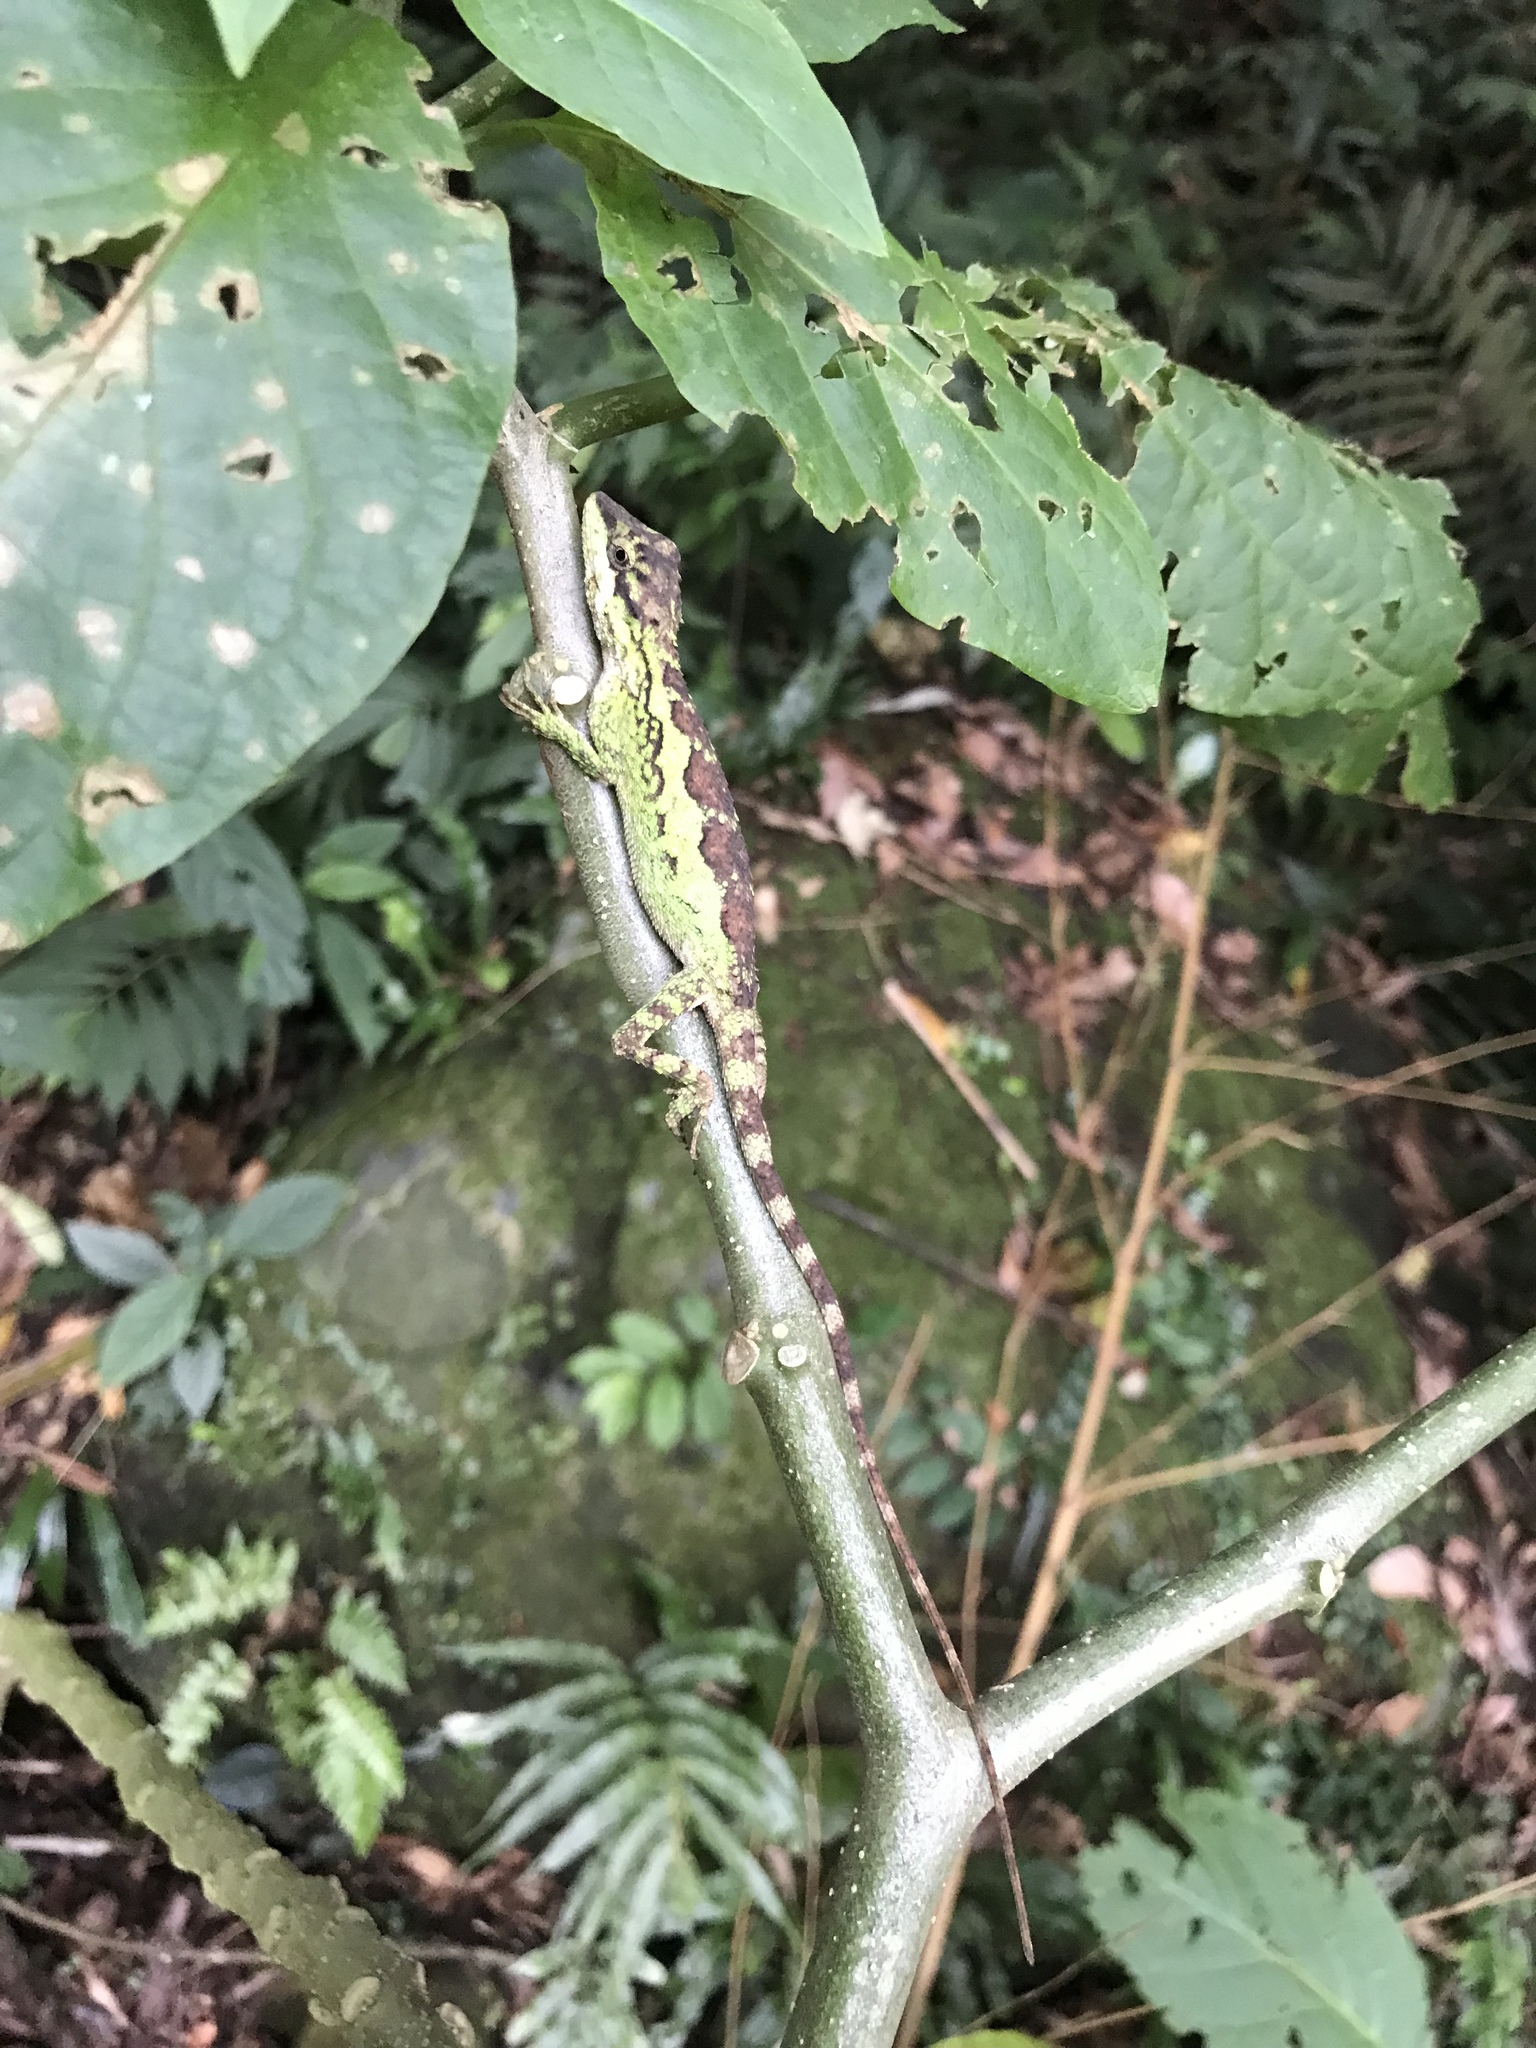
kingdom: Animalia
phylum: Chordata
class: Squamata
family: Agamidae
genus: Diploderma
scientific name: Diploderma brevipes
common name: Short-legged japalure
